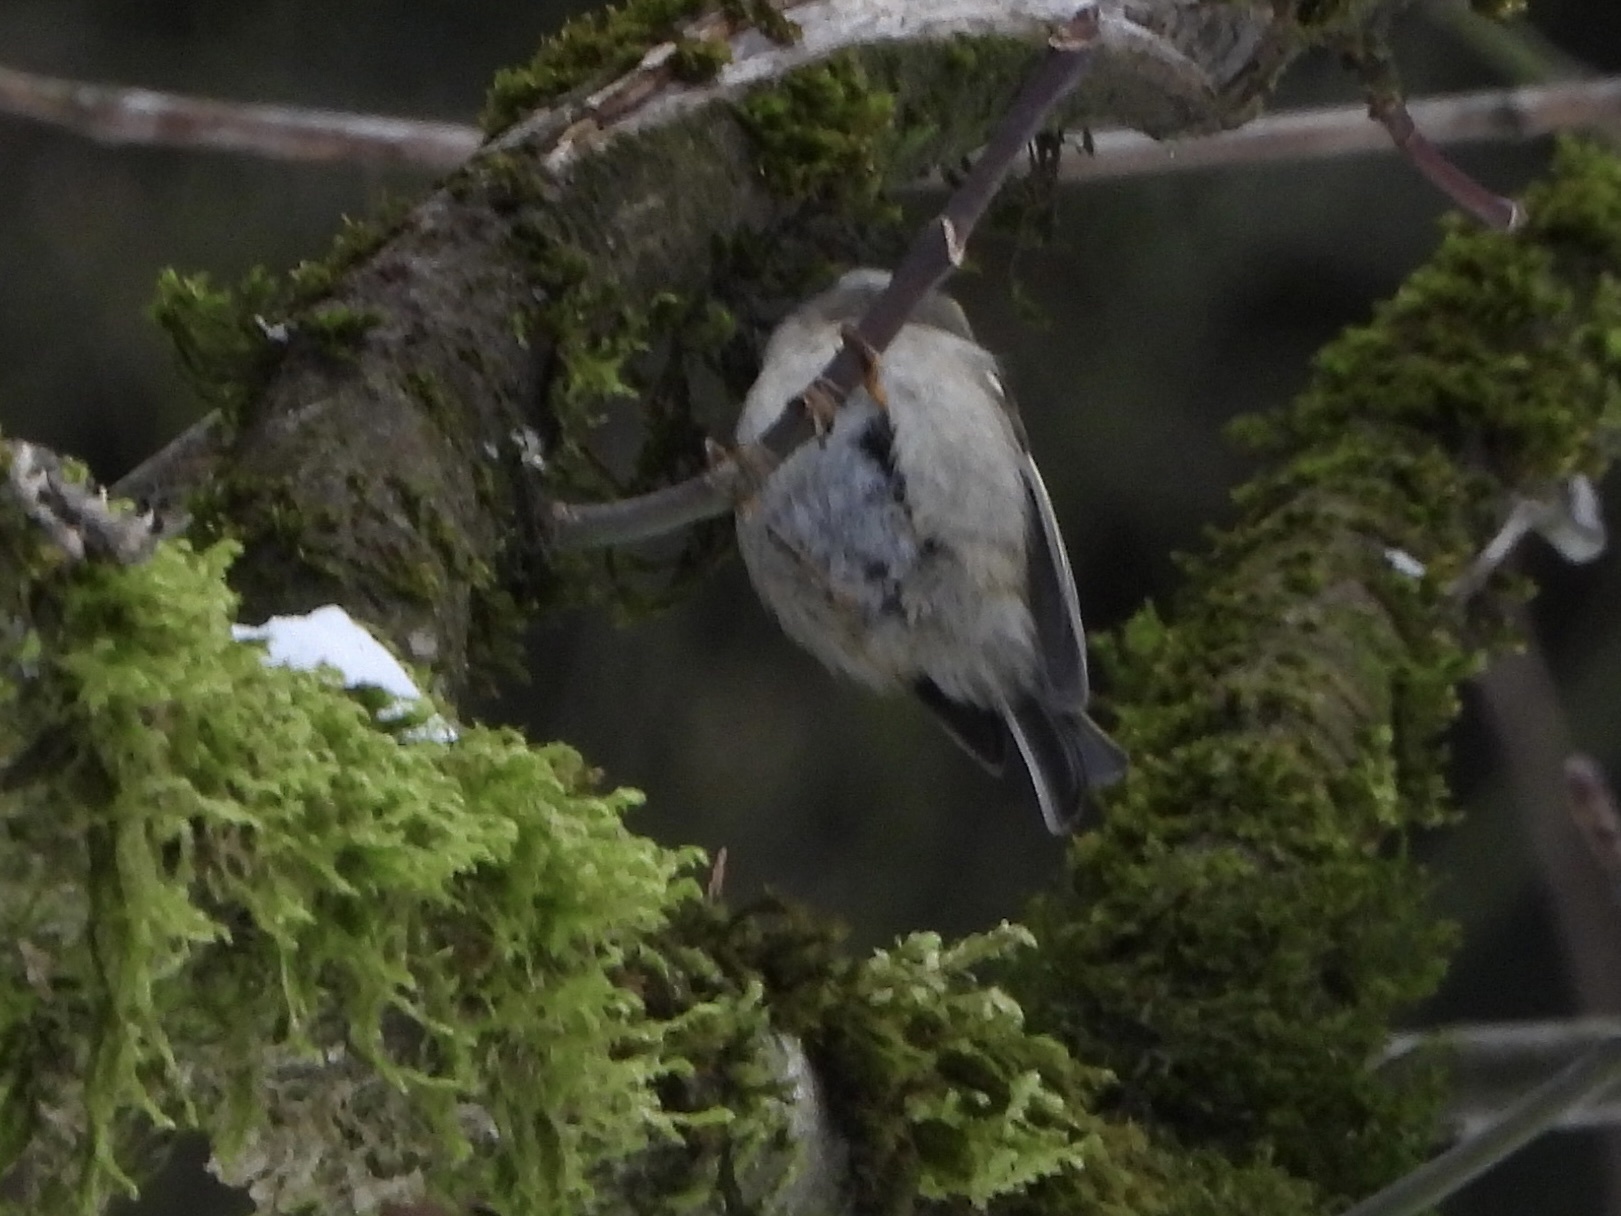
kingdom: Animalia
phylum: Chordata
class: Aves
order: Passeriformes
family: Regulidae
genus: Regulus
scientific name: Regulus satrapa
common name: Golden-crowned kinglet
